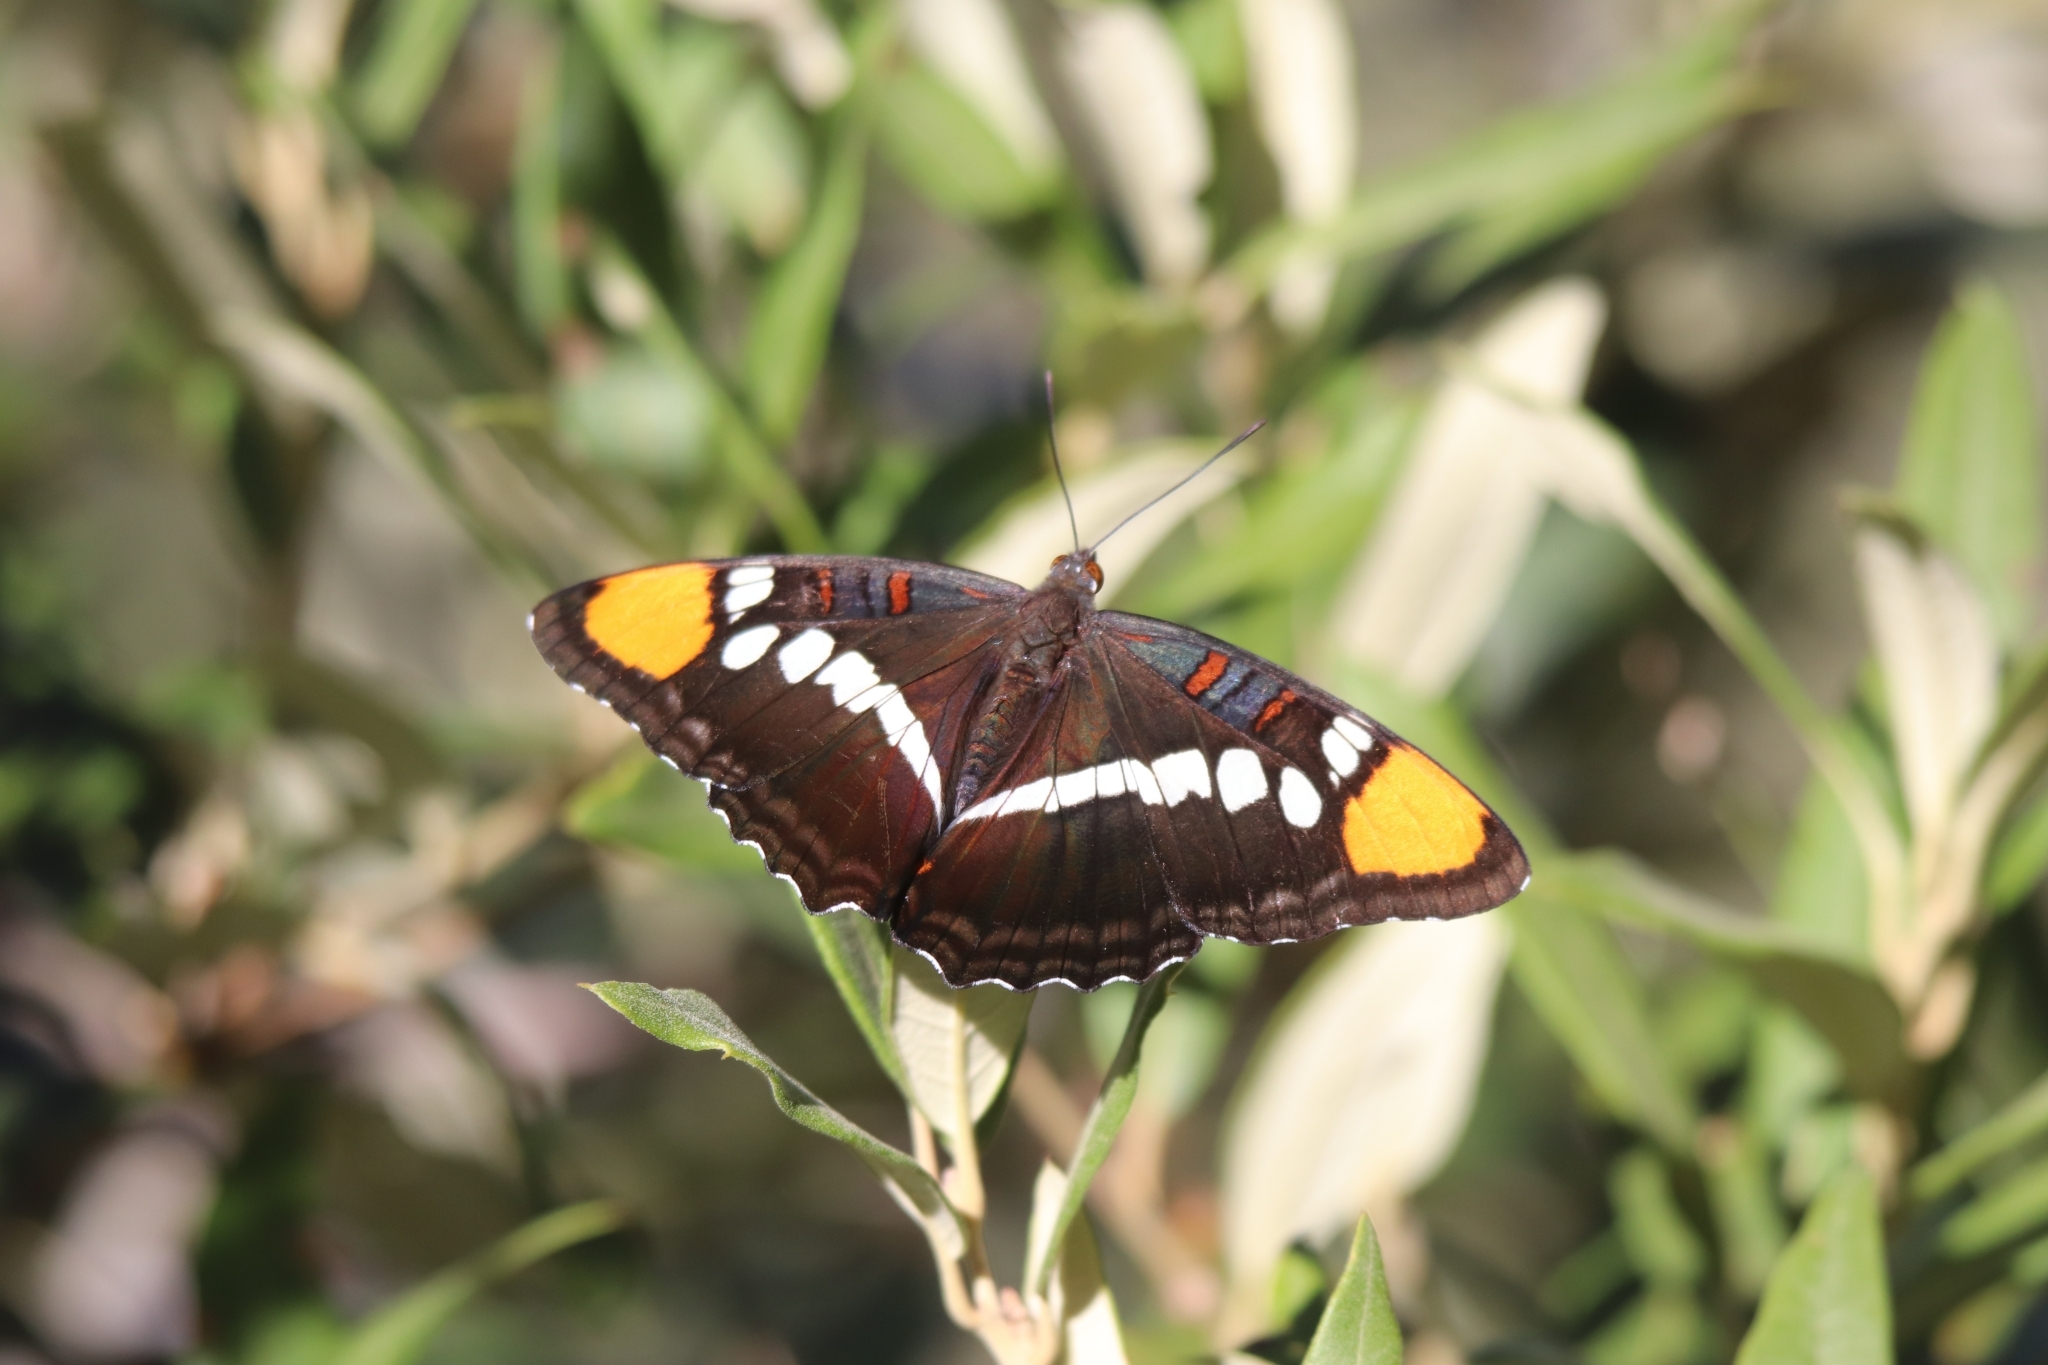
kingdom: Animalia
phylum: Arthropoda
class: Insecta
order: Lepidoptera
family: Nymphalidae
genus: Limenitis
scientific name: Limenitis bredowii
